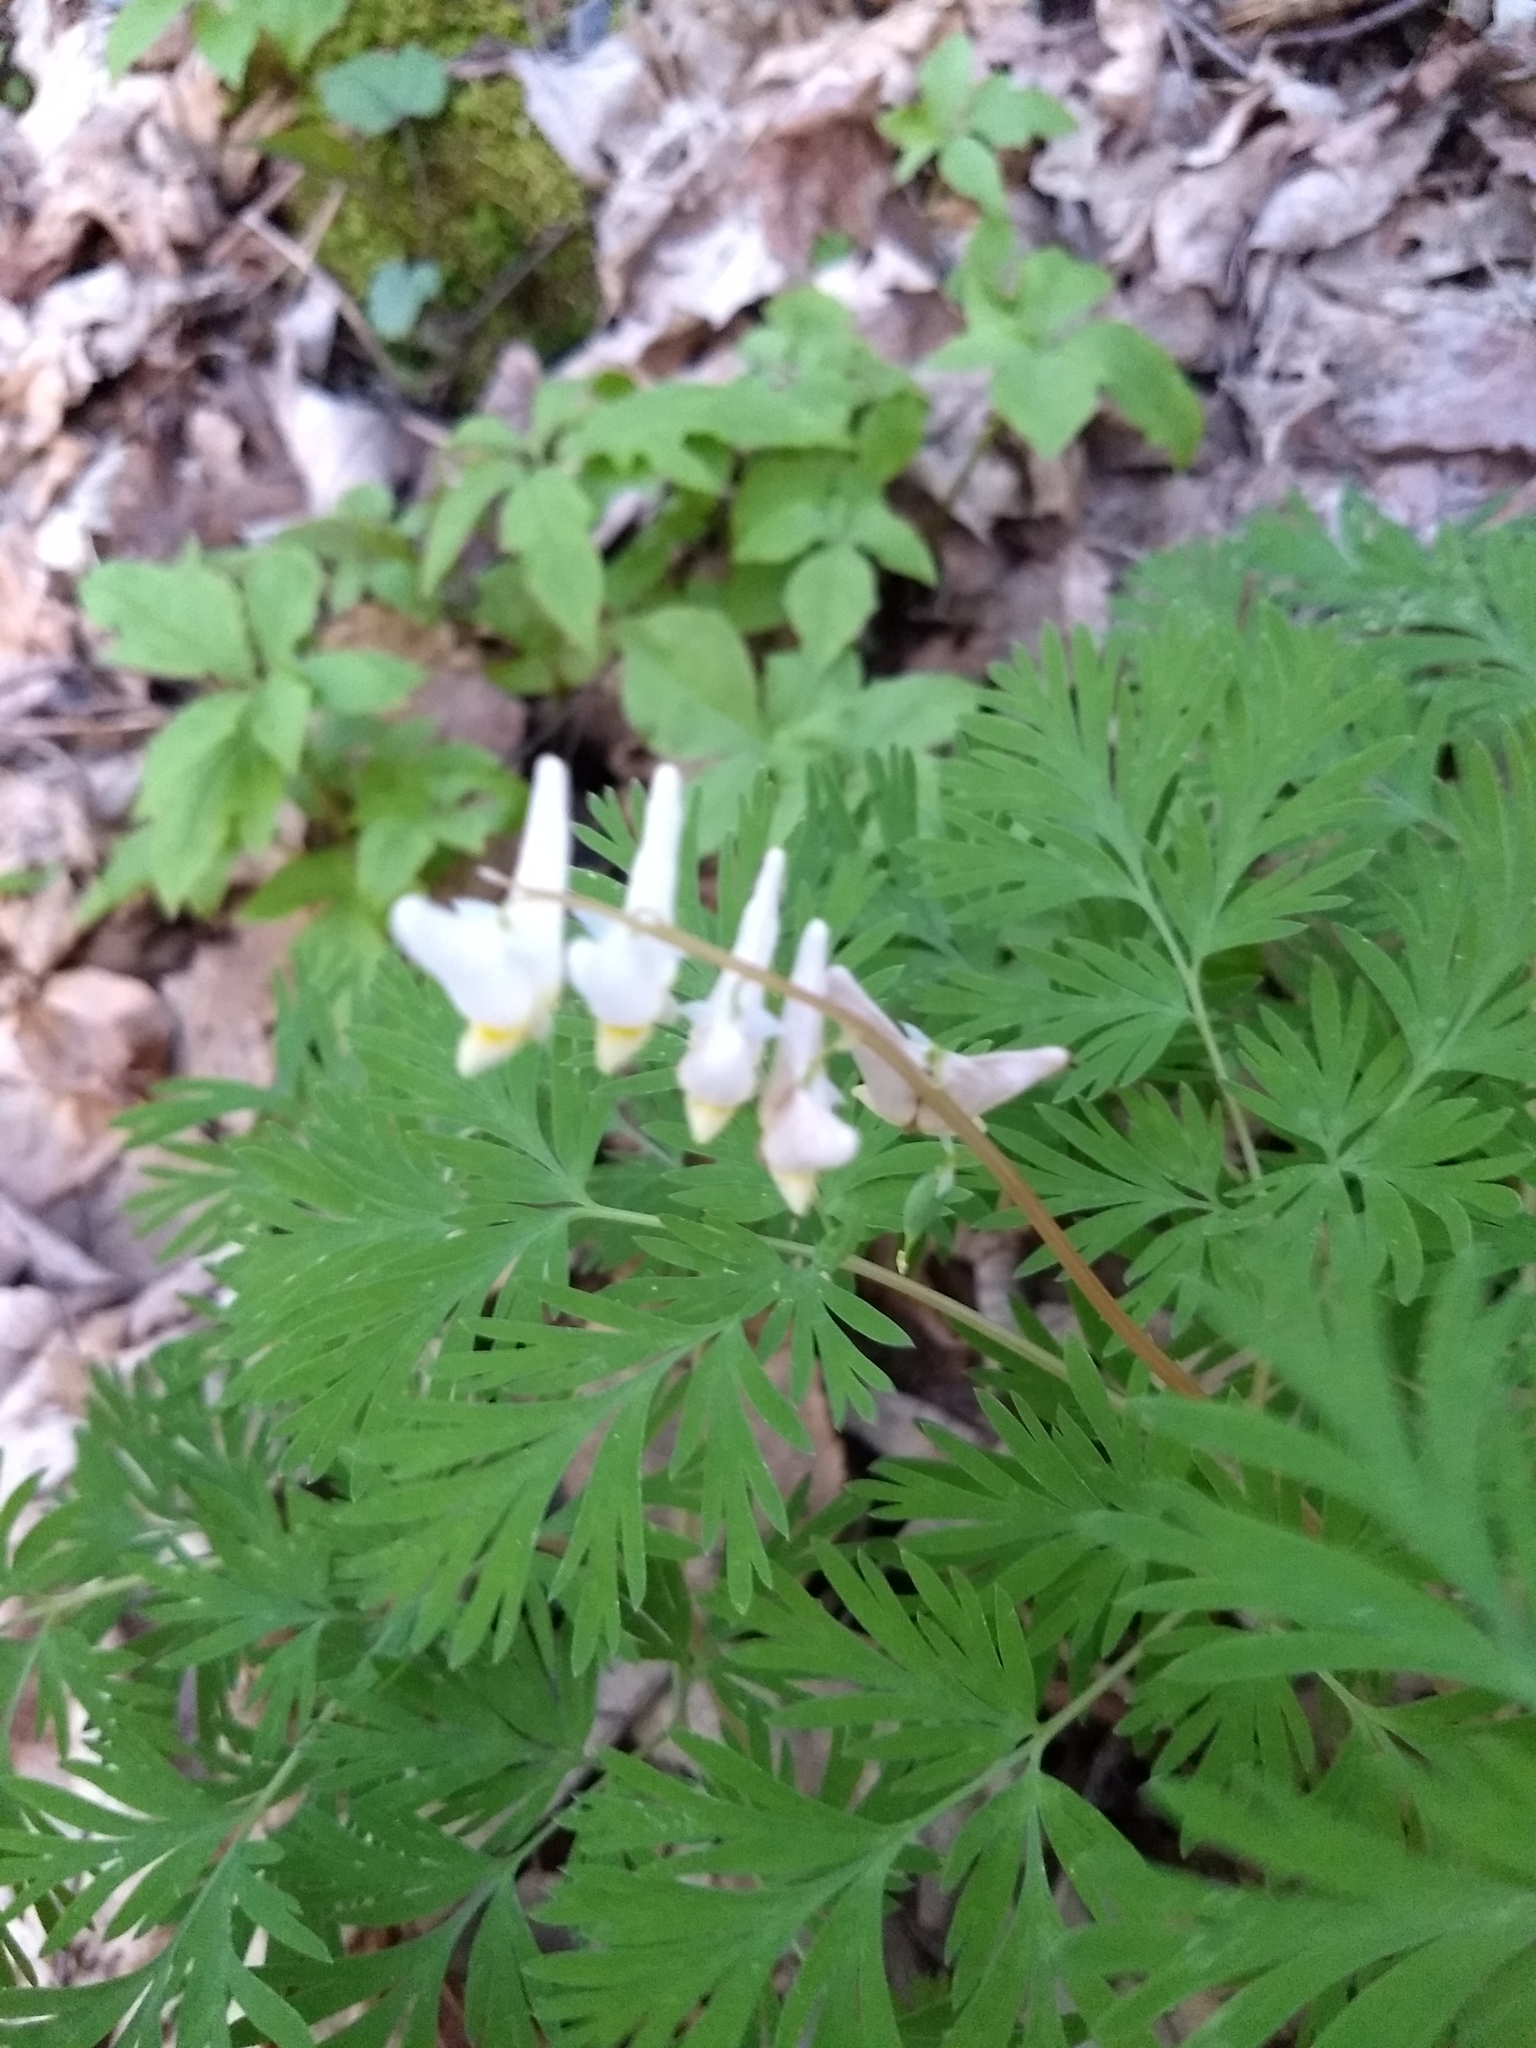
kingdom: Plantae
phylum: Tracheophyta
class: Magnoliopsida
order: Ranunculales
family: Papaveraceae
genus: Dicentra
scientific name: Dicentra cucullaria
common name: Dutchman's breeches
